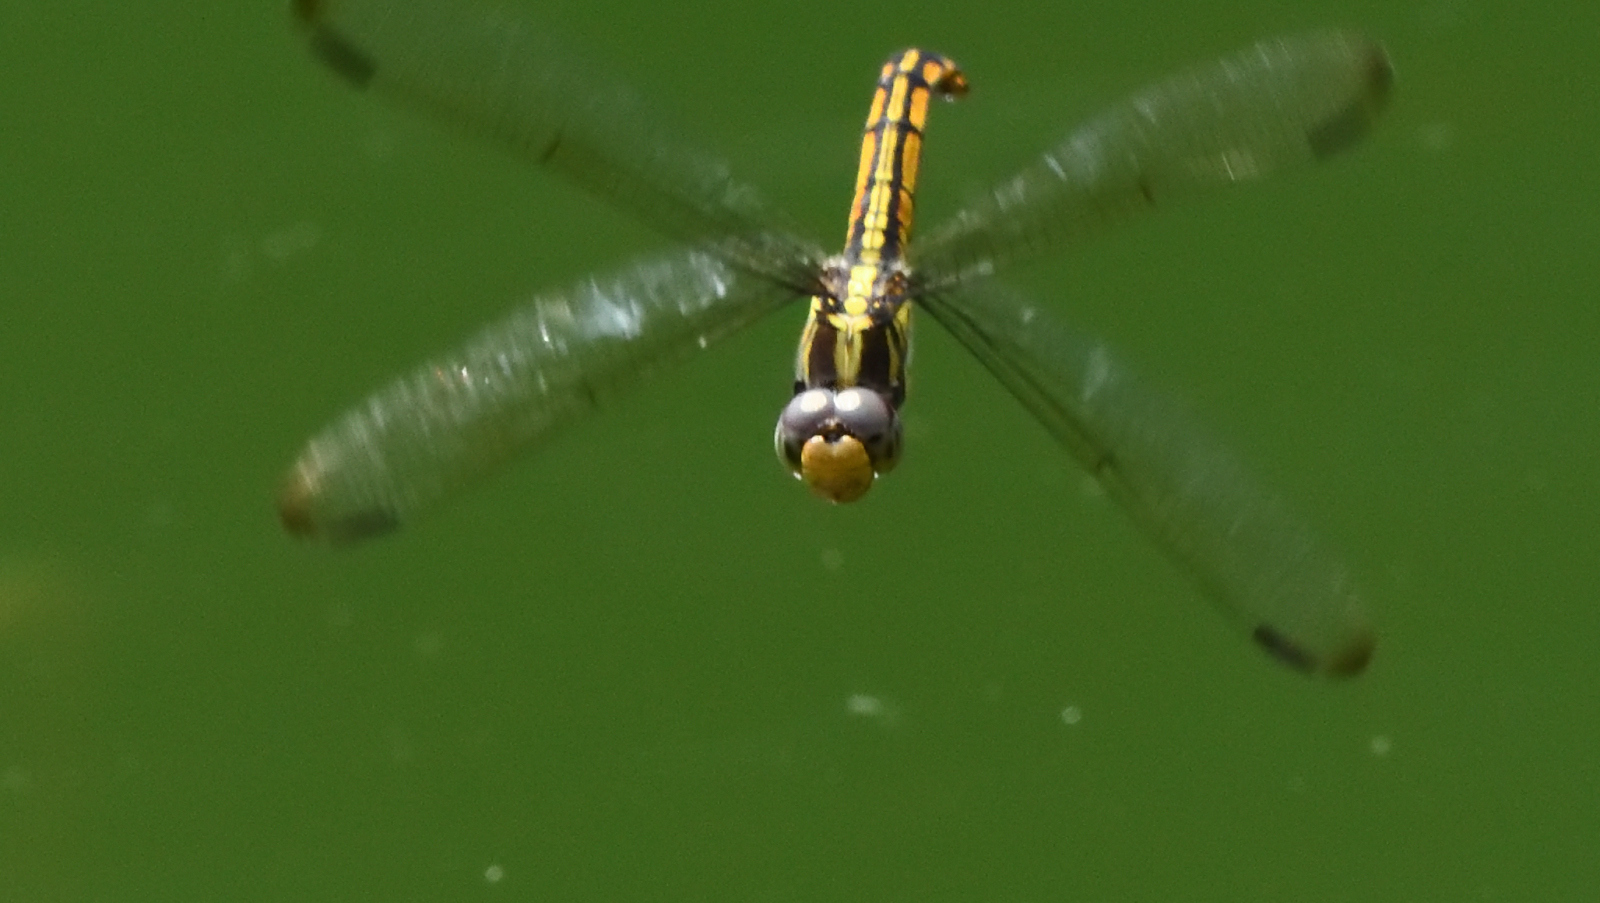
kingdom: Animalia
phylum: Arthropoda
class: Insecta
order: Odonata
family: Libellulidae
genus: Potamarcha
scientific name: Potamarcha congener
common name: Blue chaser
